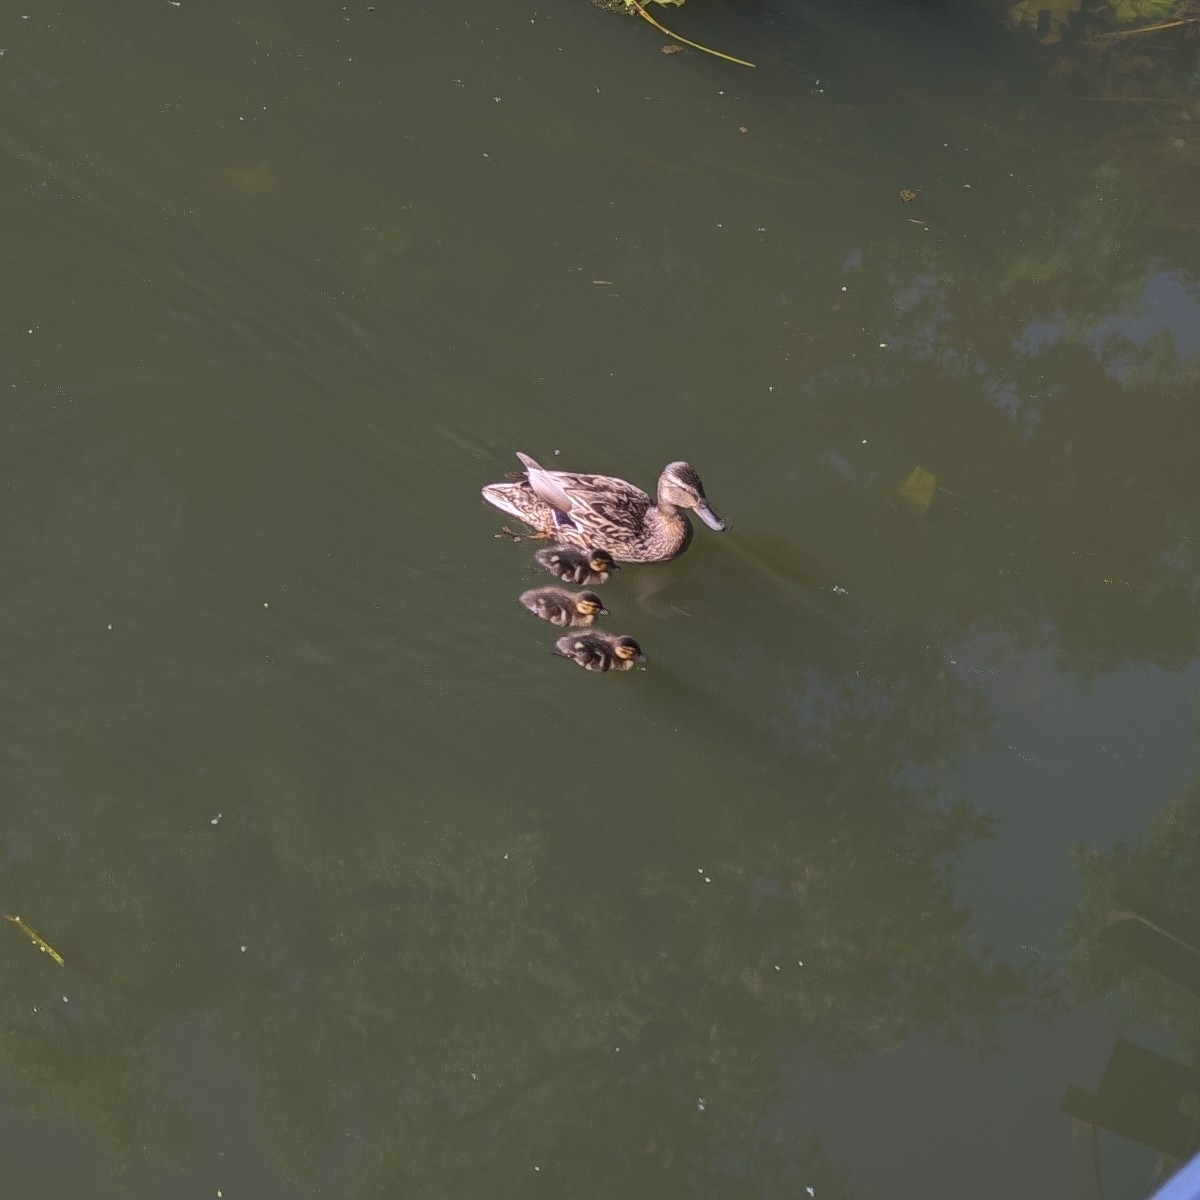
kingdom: Animalia
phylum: Chordata
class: Aves
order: Anseriformes
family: Anatidae
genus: Anas
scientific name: Anas platyrhynchos
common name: Mallard
